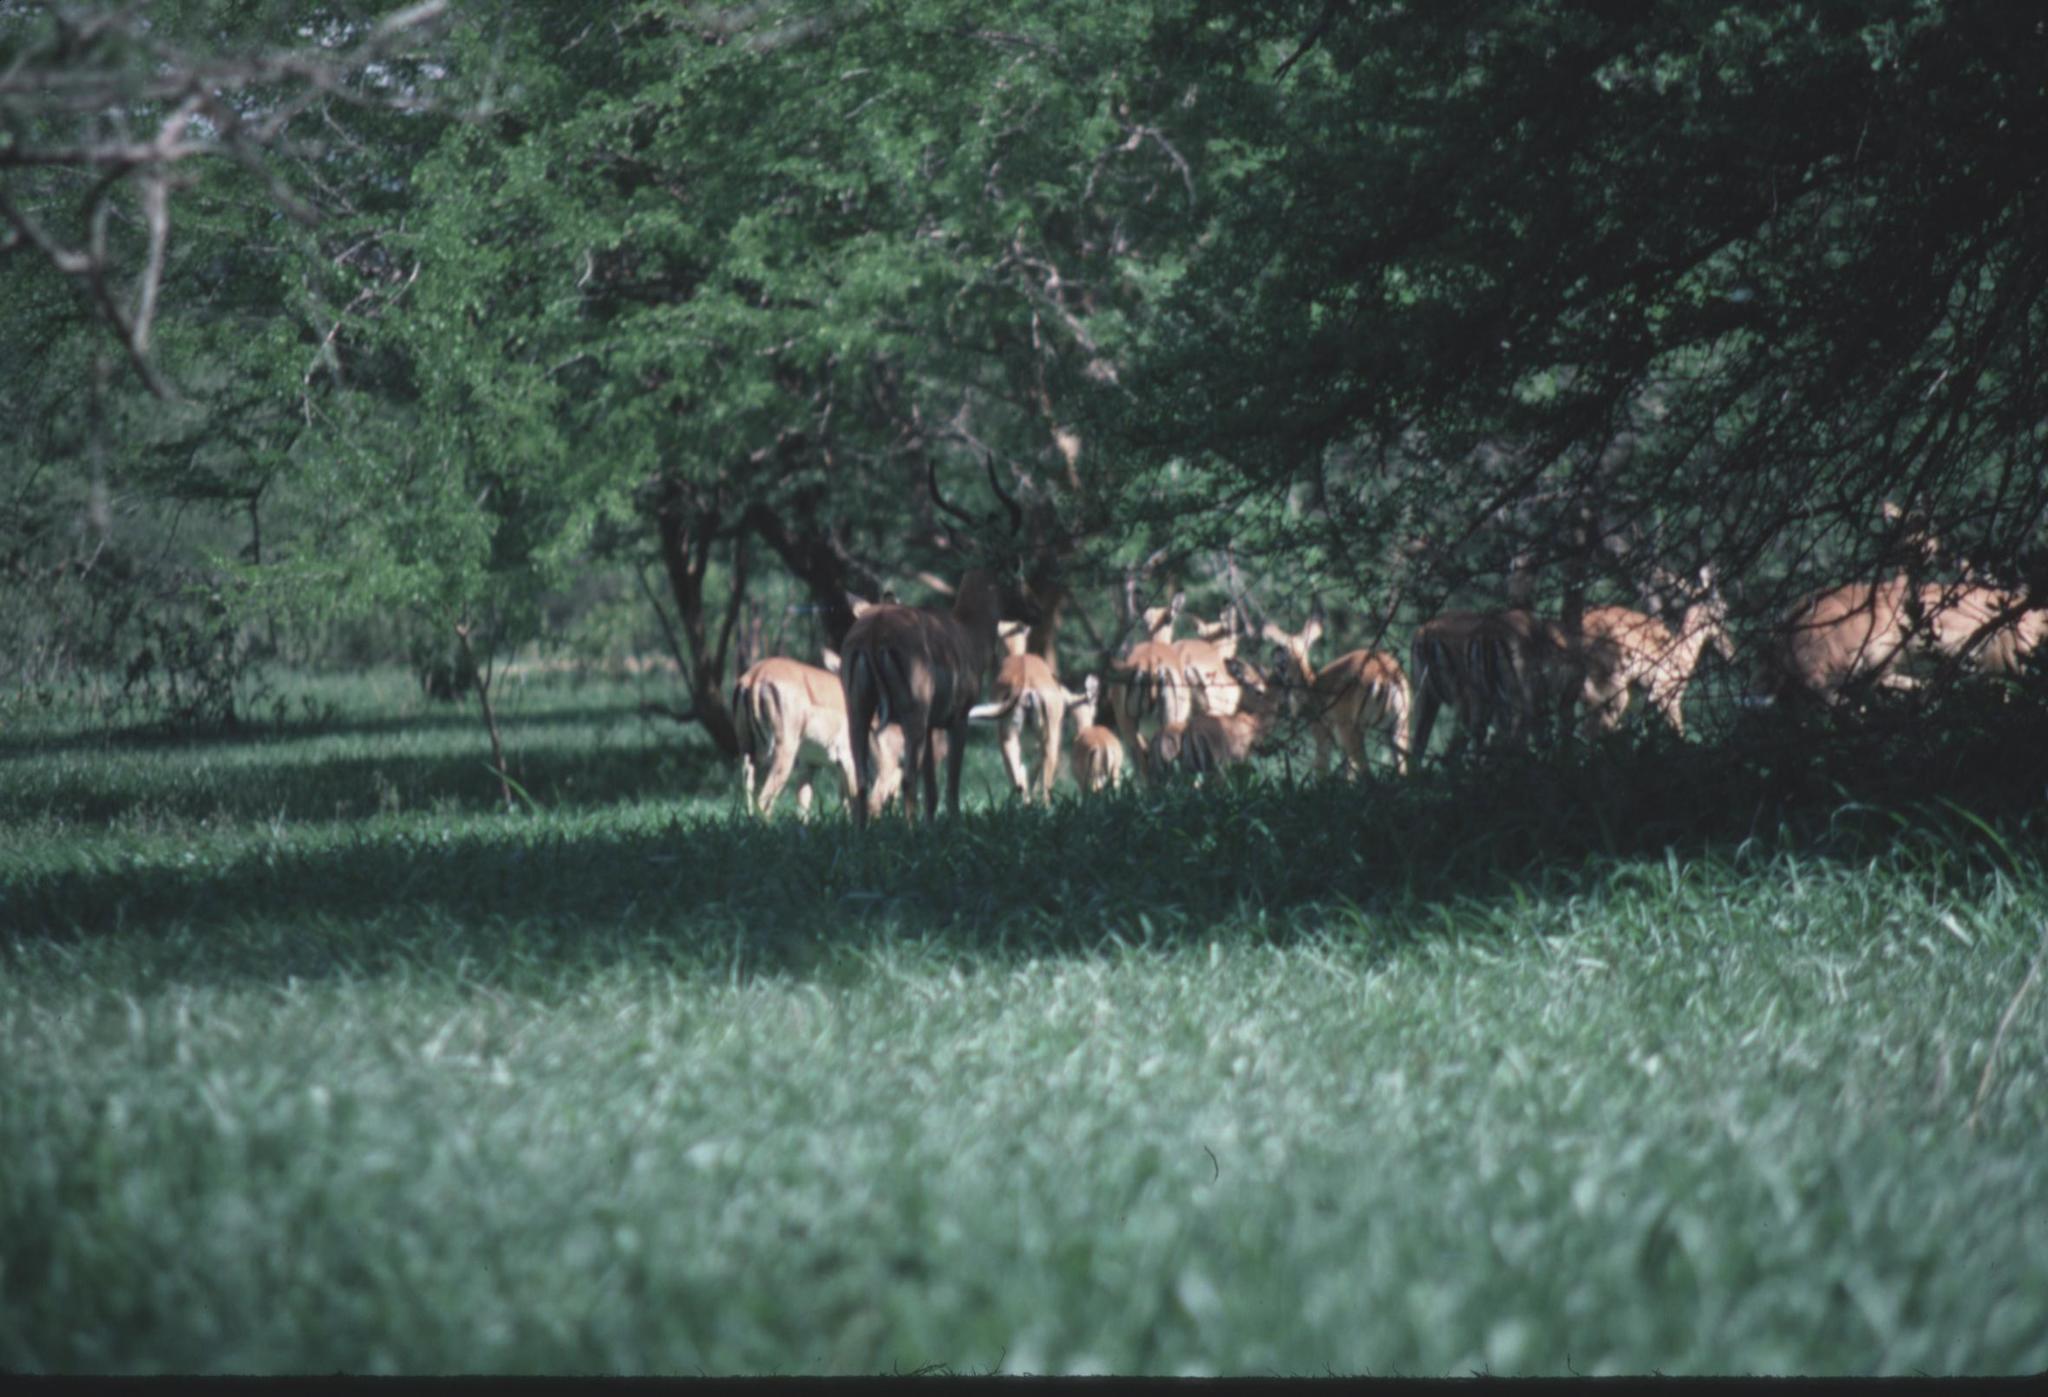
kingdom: Animalia
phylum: Chordata
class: Mammalia
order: Artiodactyla
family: Bovidae
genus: Aepyceros
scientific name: Aepyceros melampus
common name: Impala
